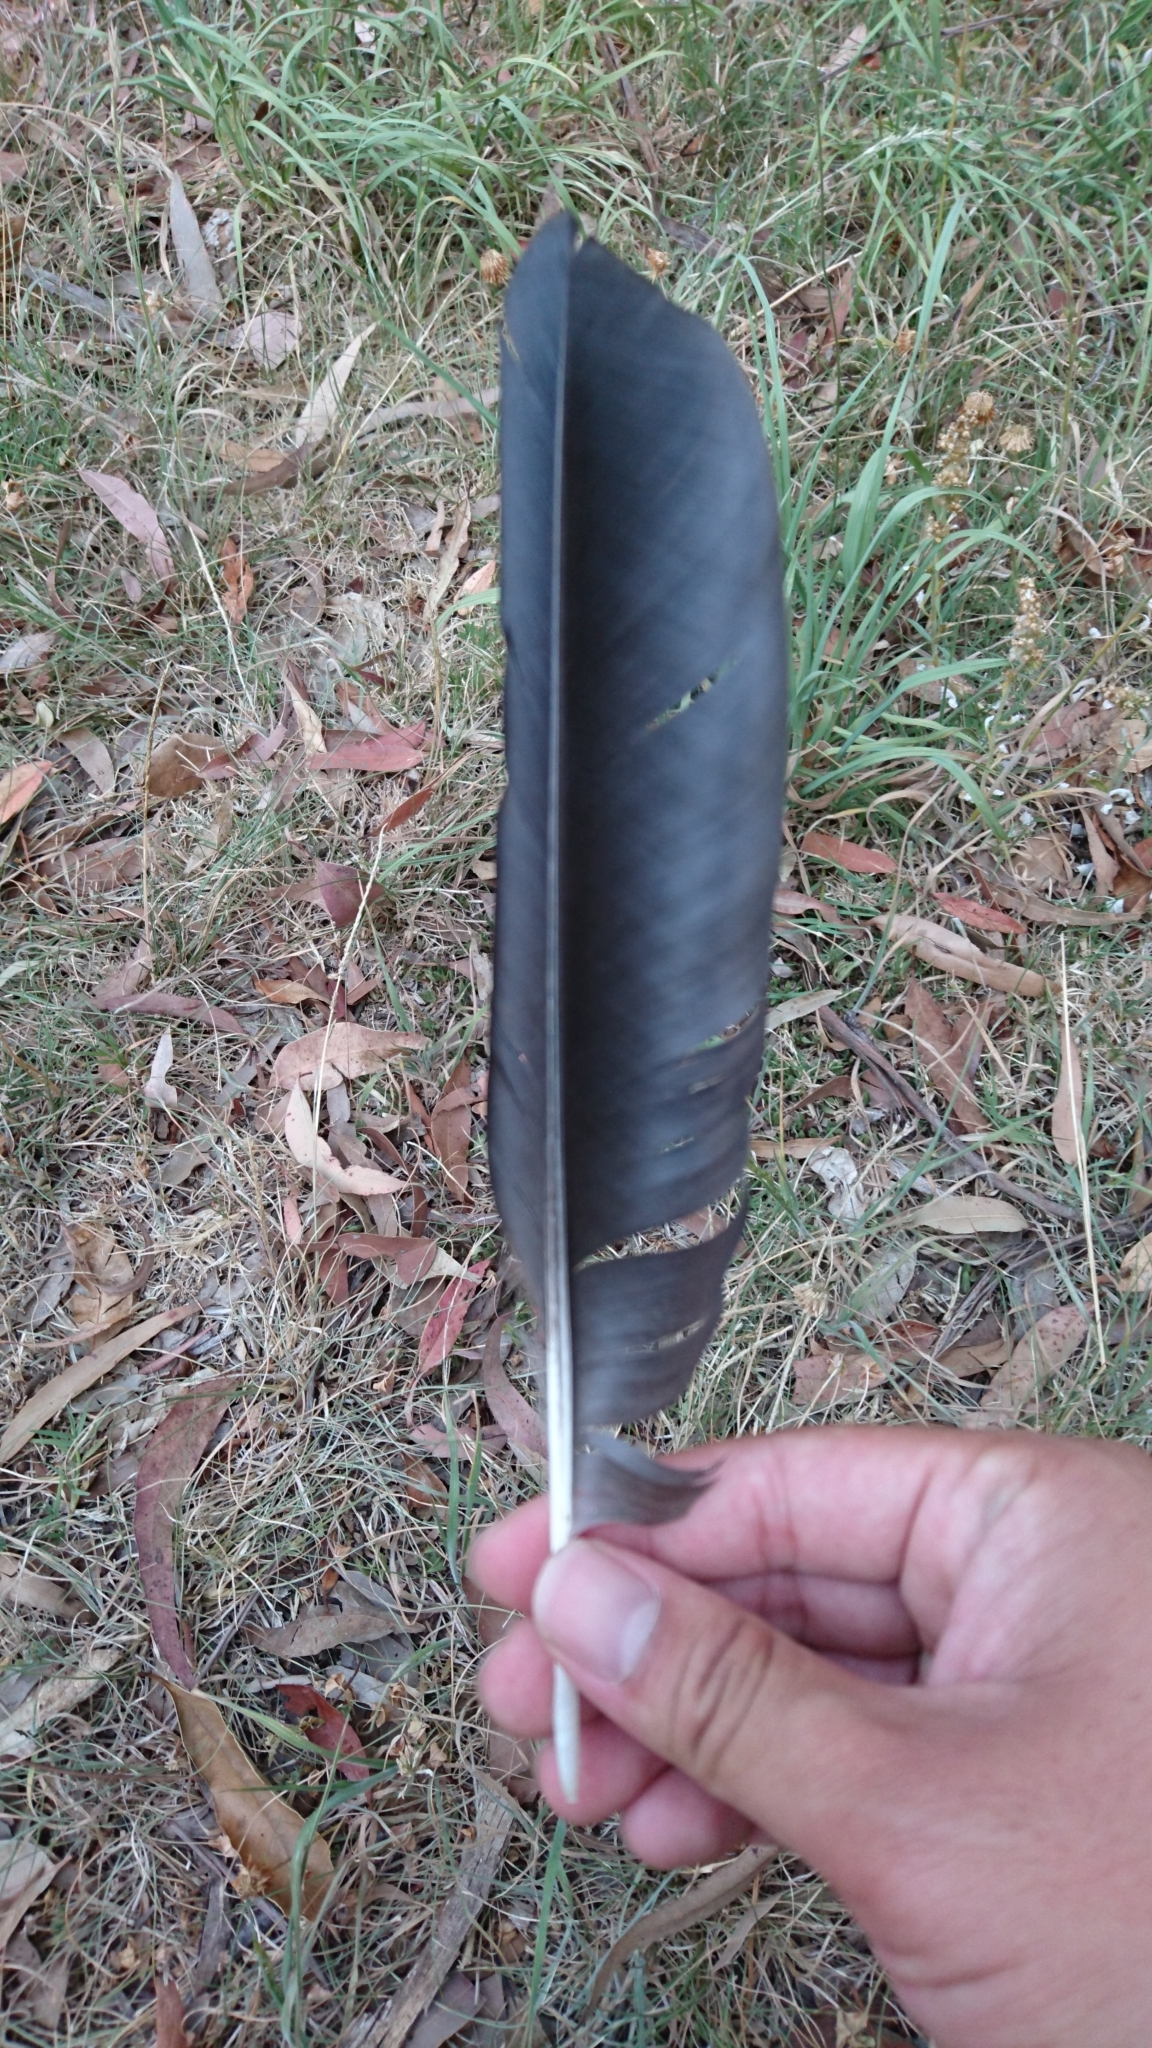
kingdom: Animalia
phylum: Chordata
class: Aves
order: Passeriformes
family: Corvidae
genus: Corvus
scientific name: Corvus
